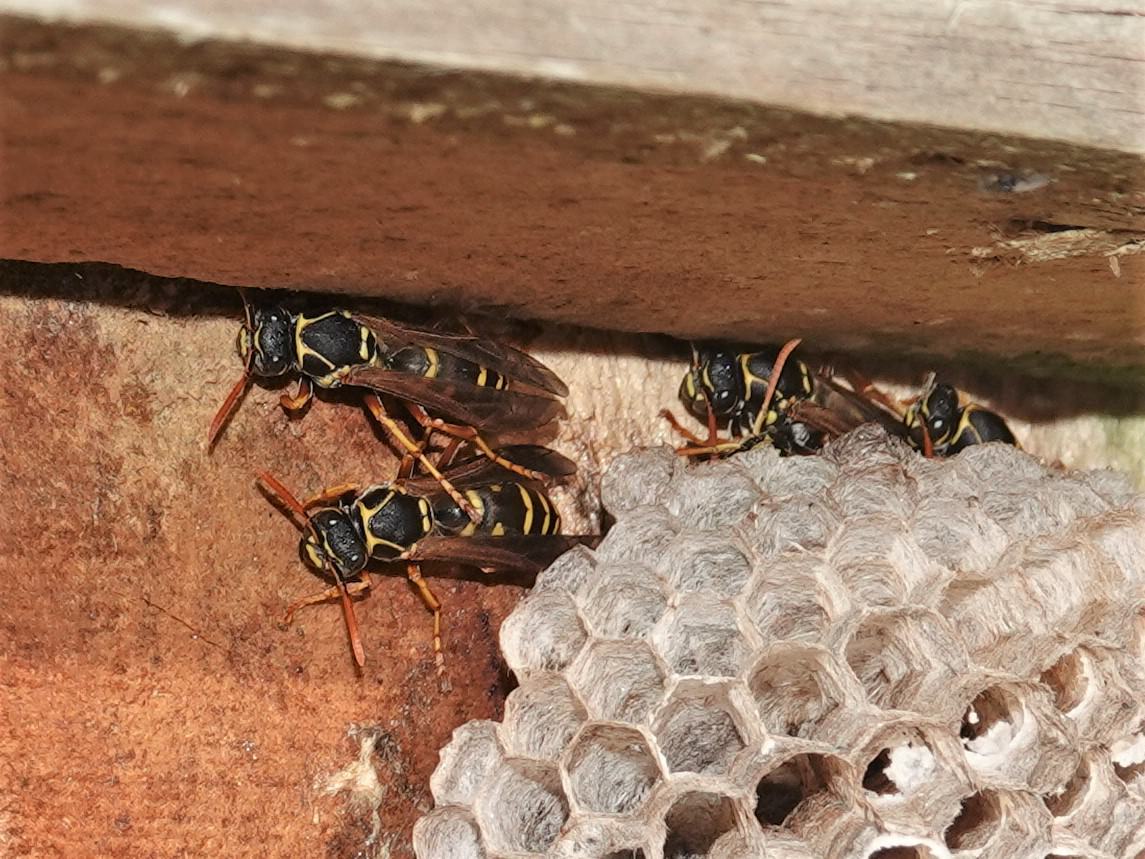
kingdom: Animalia
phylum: Arthropoda
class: Insecta
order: Hymenoptera
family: Eumenidae
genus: Polistes
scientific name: Polistes chinensis
